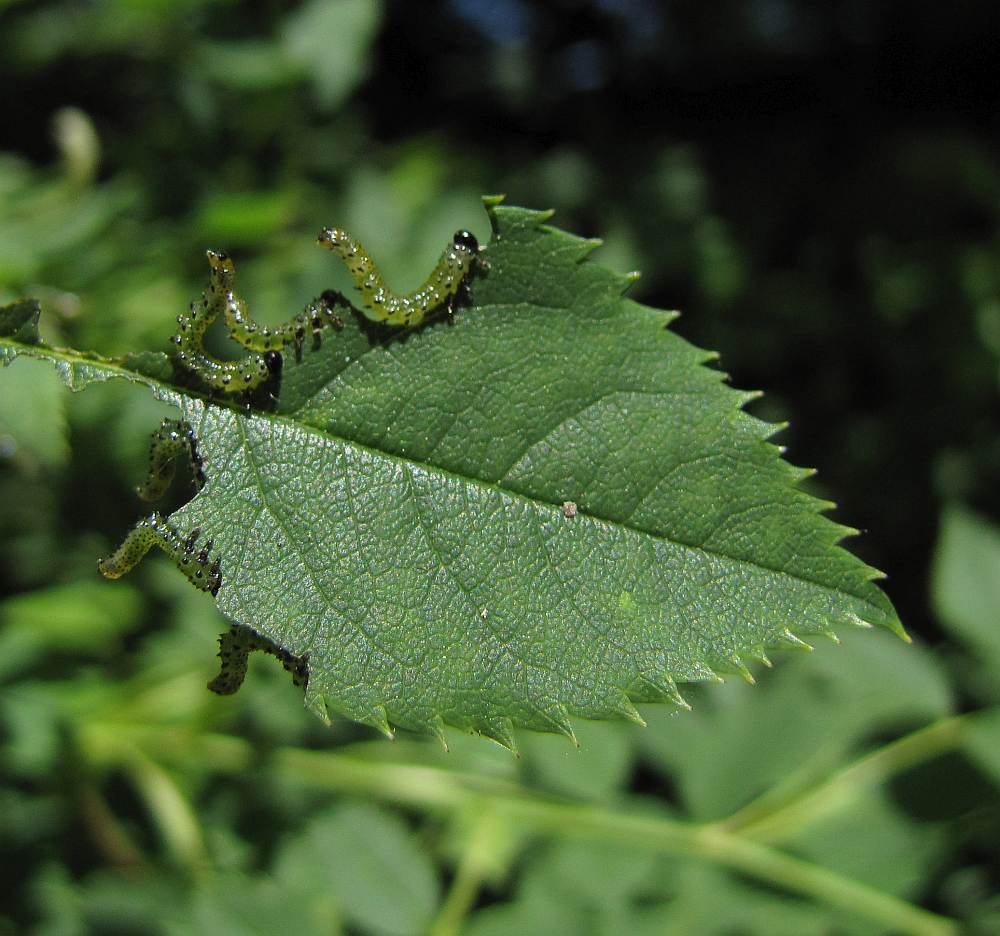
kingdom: Animalia
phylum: Arthropoda
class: Insecta
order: Hymenoptera
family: Argidae
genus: Arge
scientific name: Arge ochropus
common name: Argid sawfly
